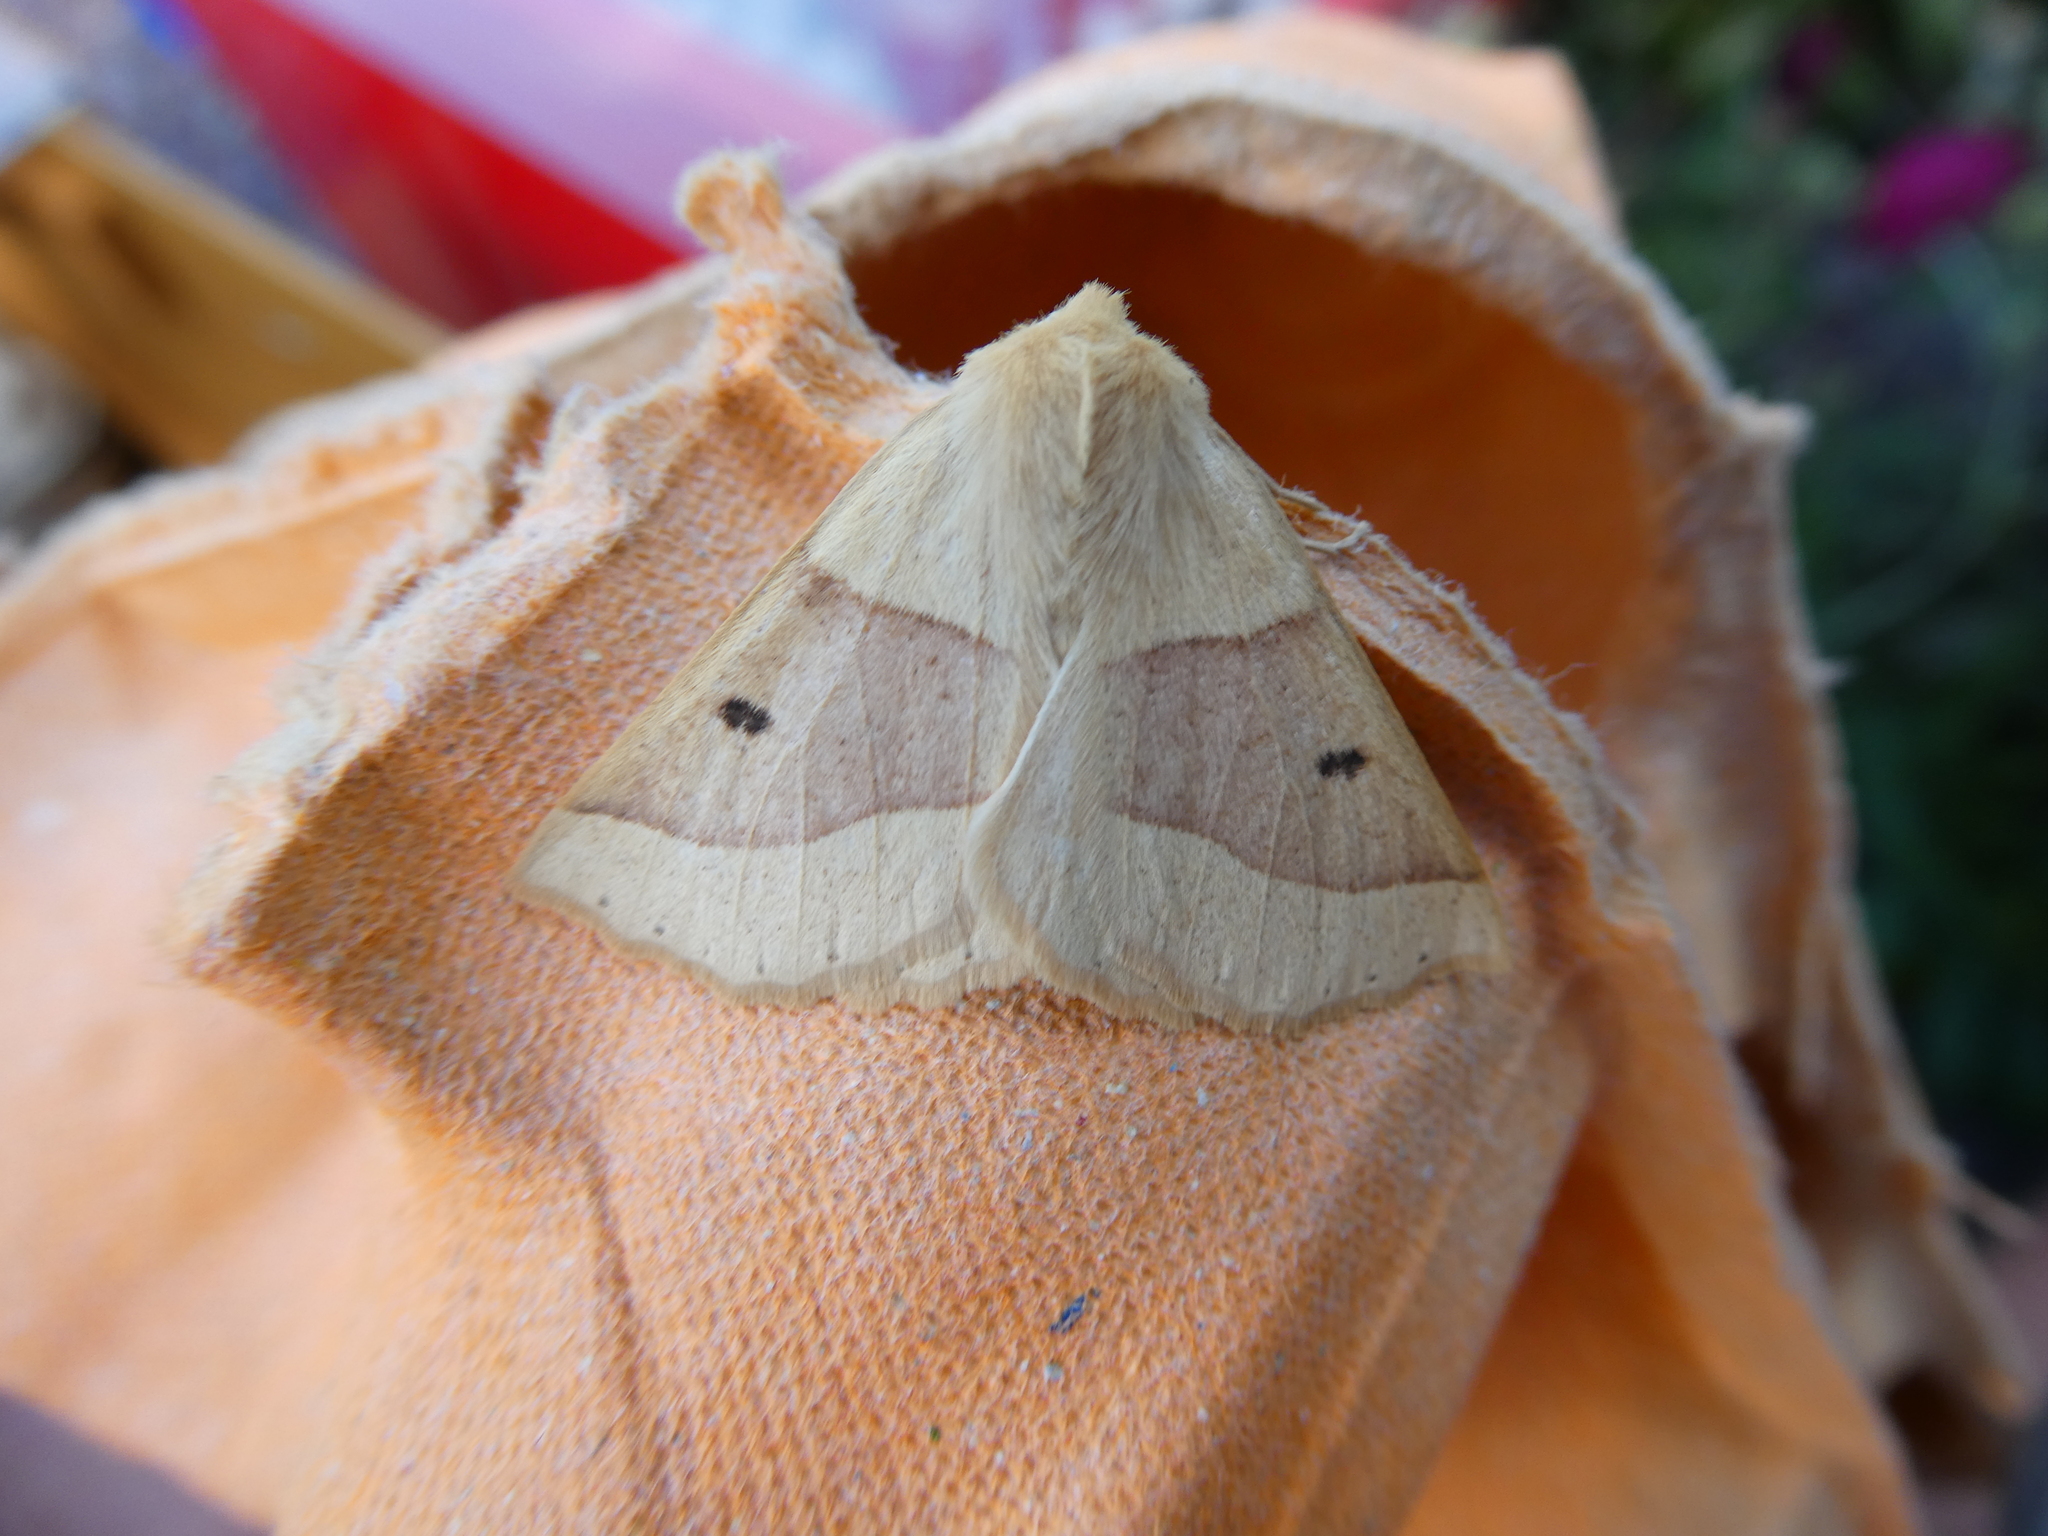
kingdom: Animalia
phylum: Arthropoda
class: Insecta
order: Lepidoptera
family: Geometridae
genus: Crocallis
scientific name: Crocallis elinguaria
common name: Scalloped oak
